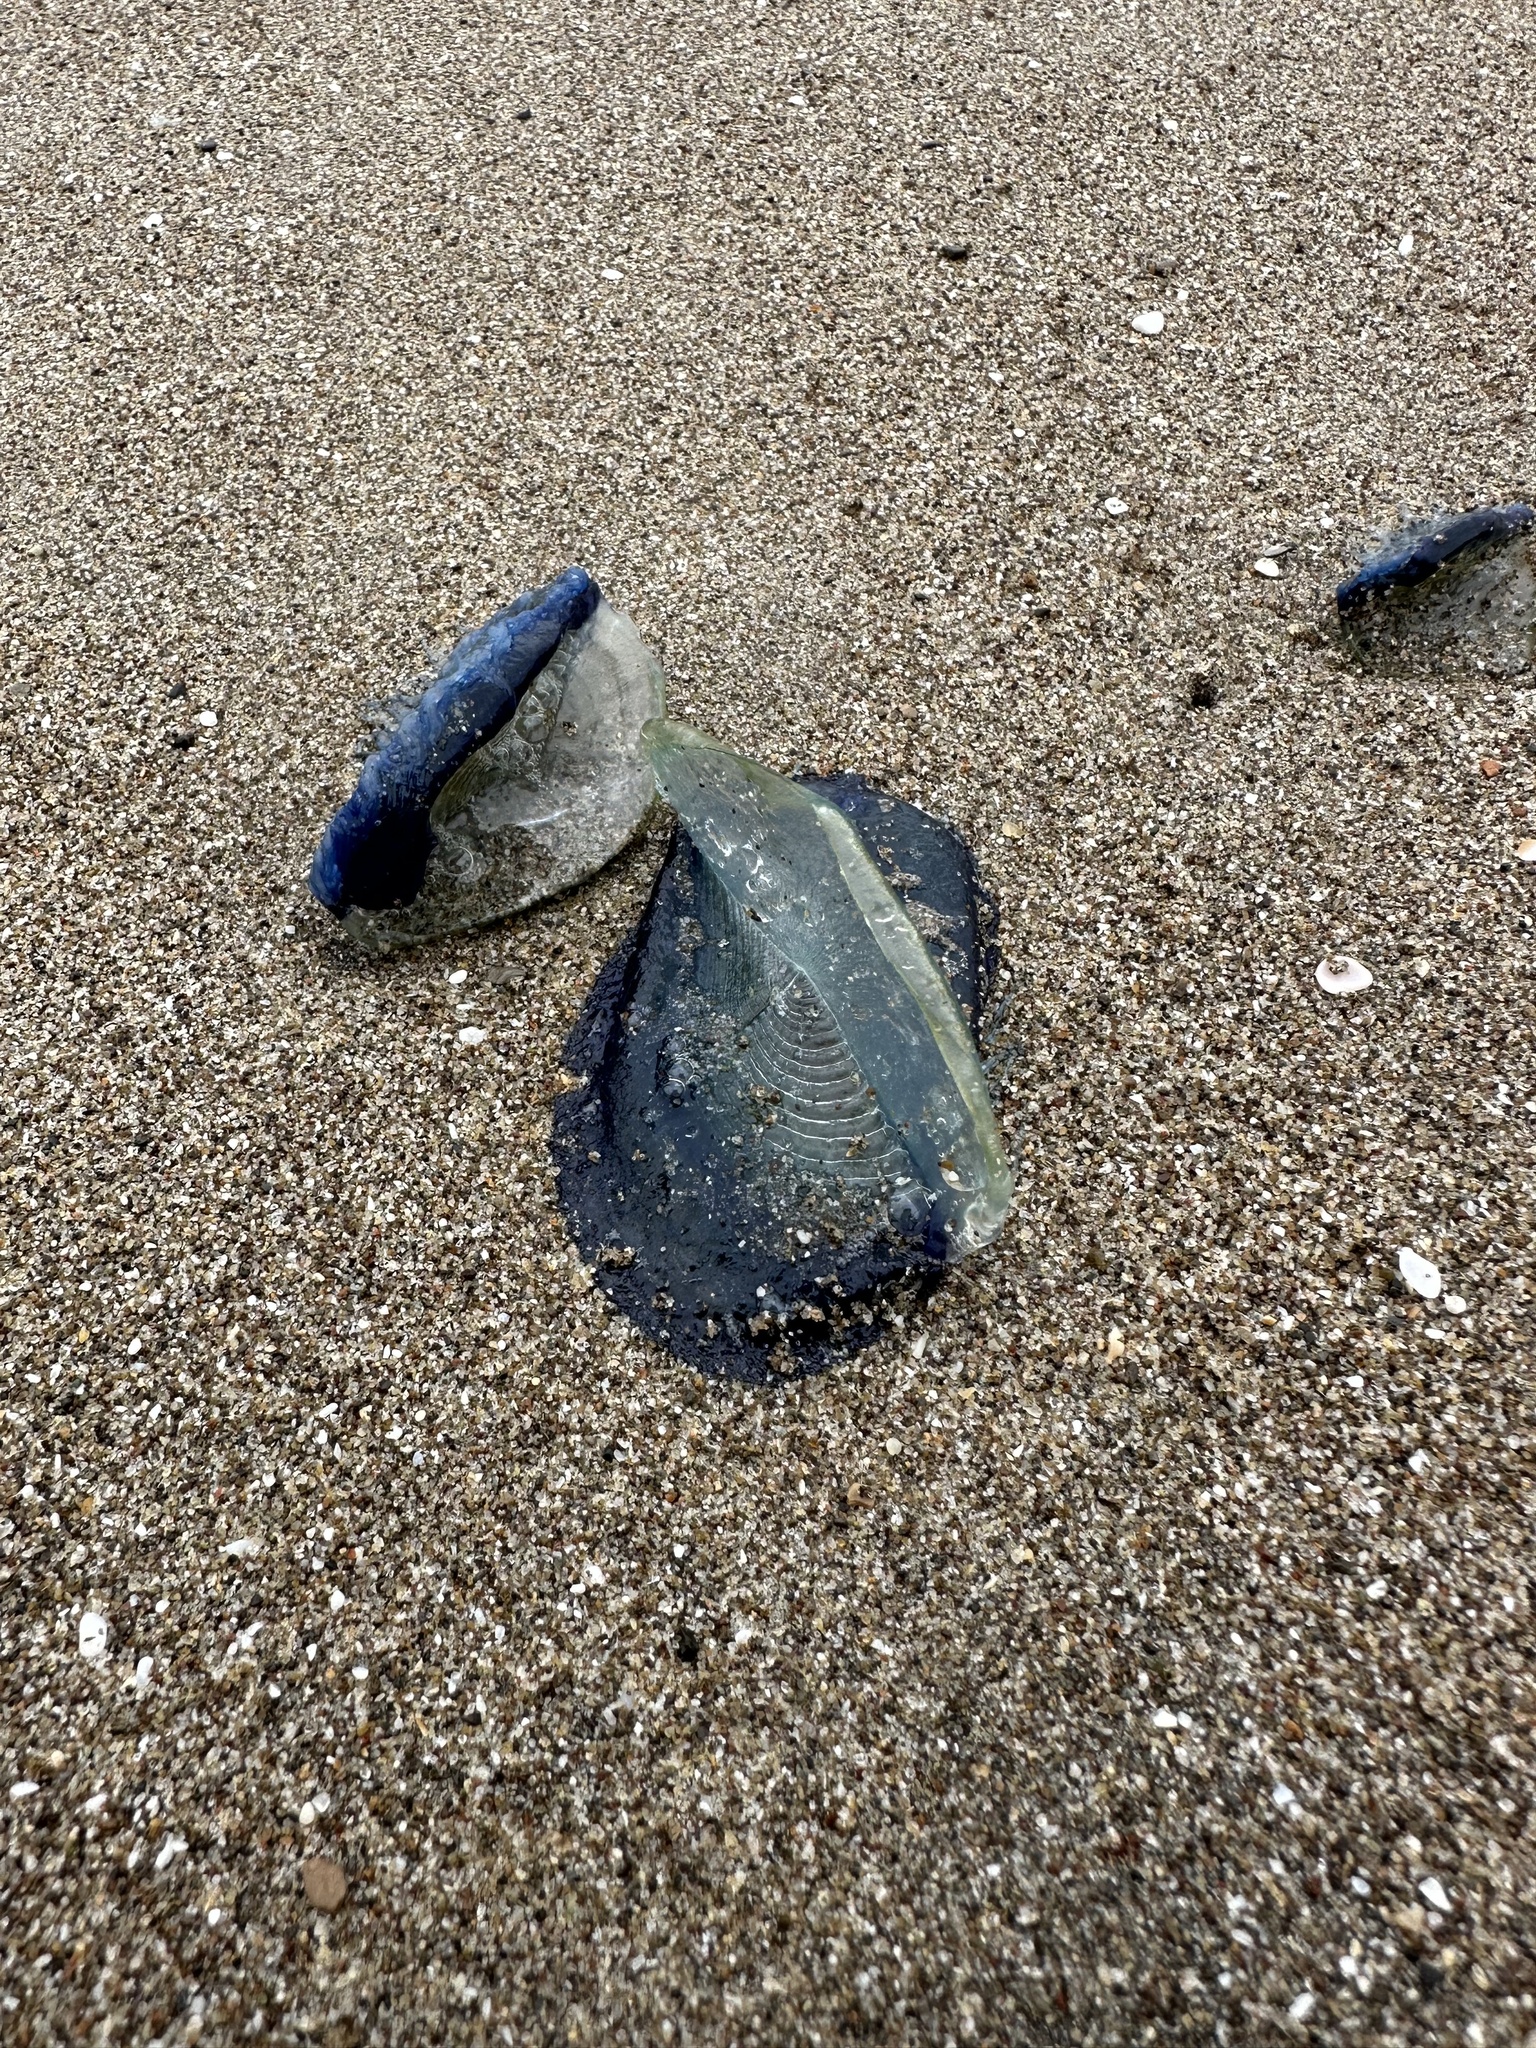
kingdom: Animalia
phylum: Cnidaria
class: Hydrozoa
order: Anthoathecata
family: Porpitidae
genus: Velella
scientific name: Velella velella
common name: By-the-wind-sailor
